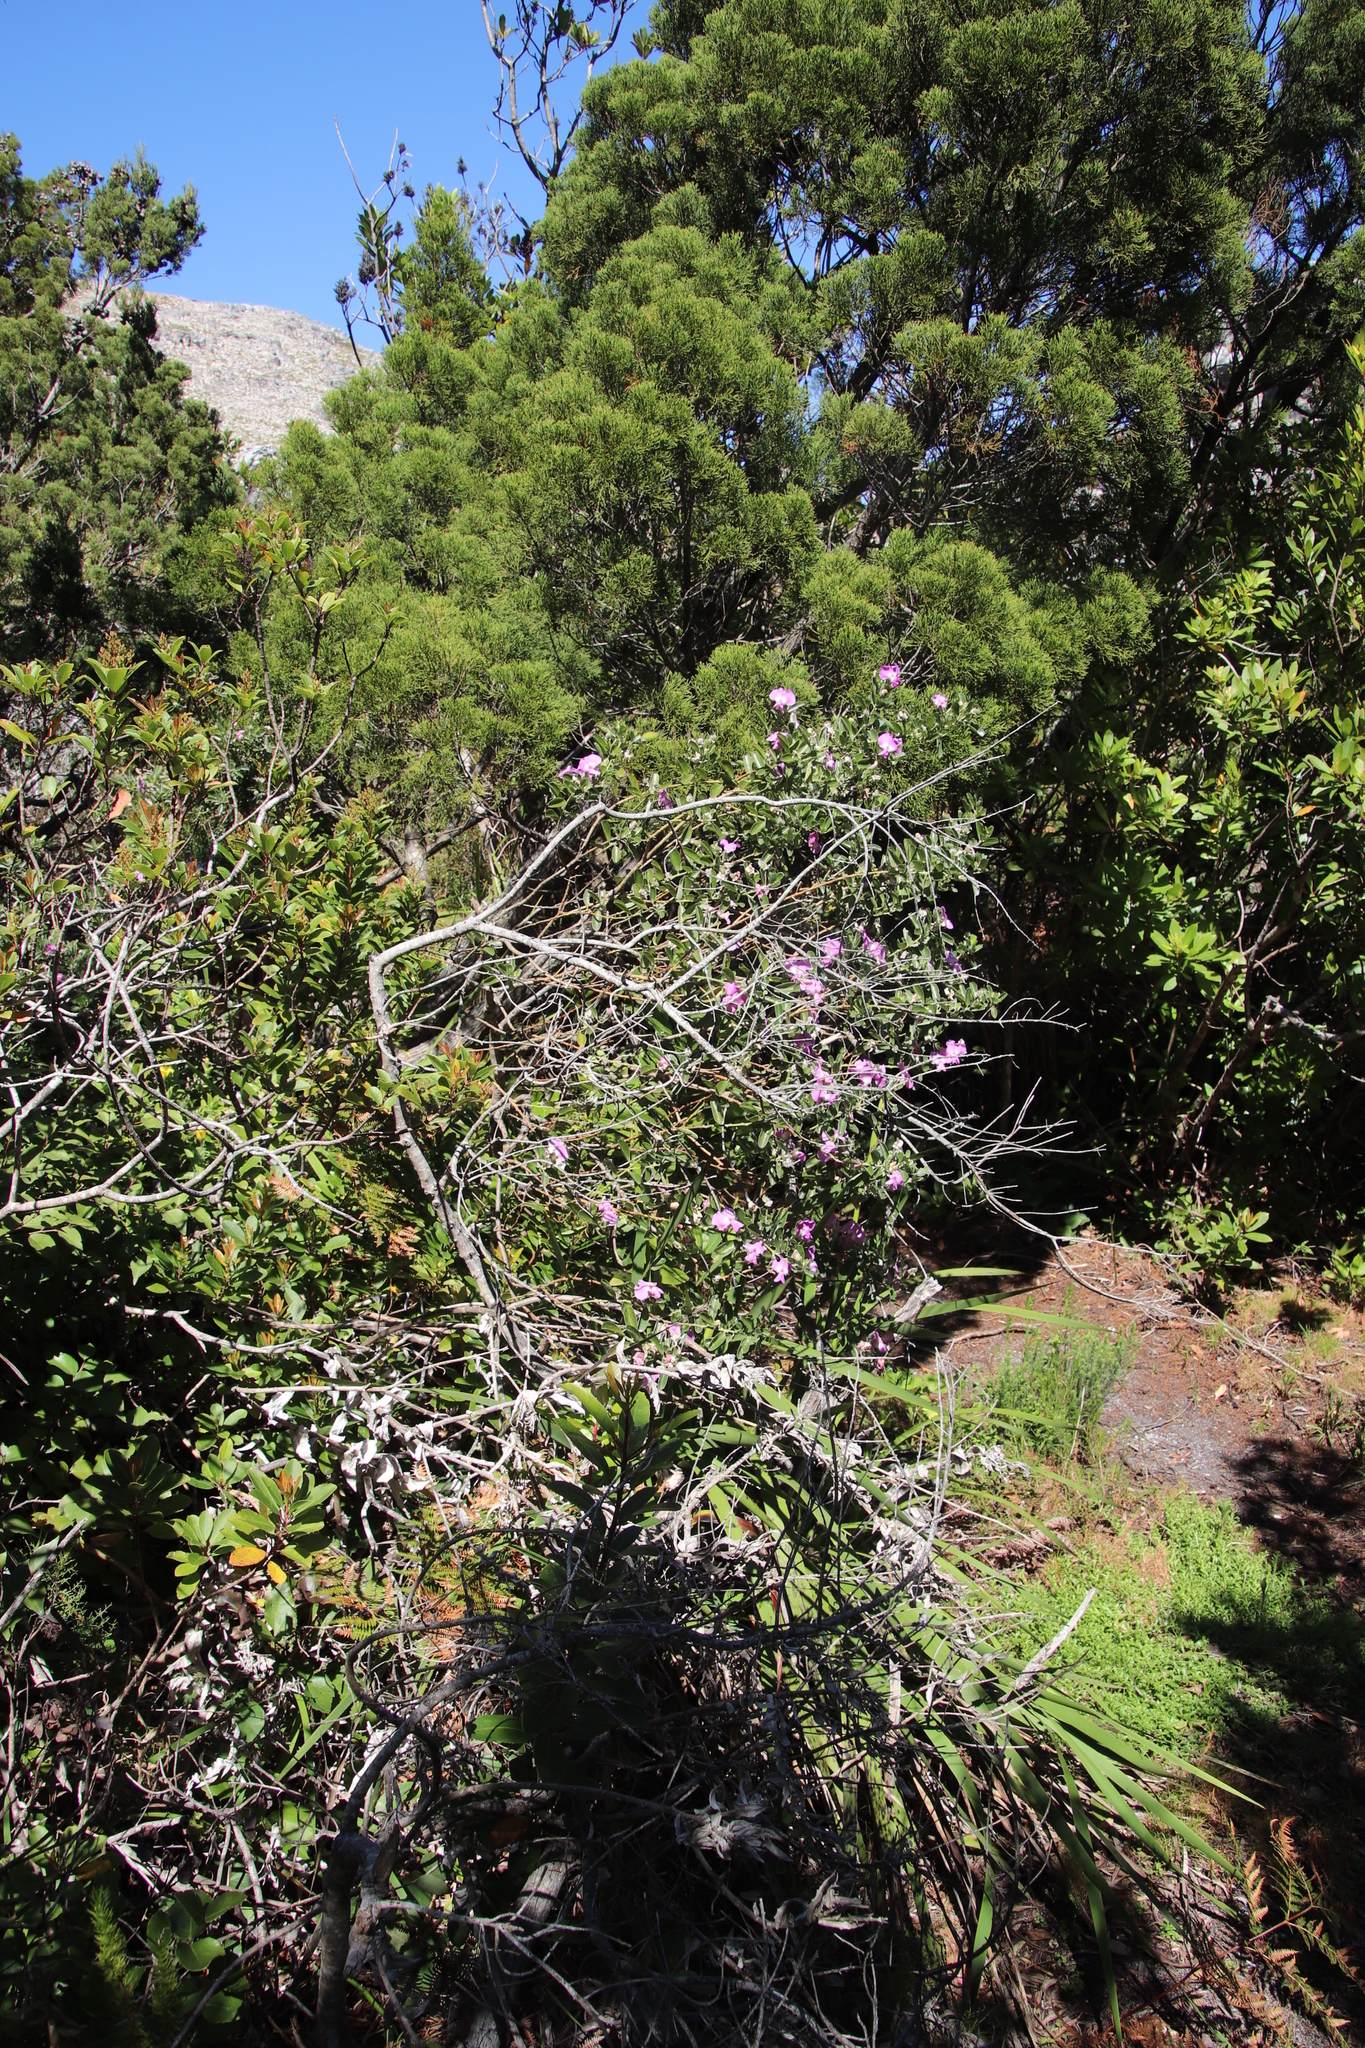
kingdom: Plantae
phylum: Tracheophyta
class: Magnoliopsida
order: Fabales
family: Fabaceae
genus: Podalyria
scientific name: Podalyria calyptrata
